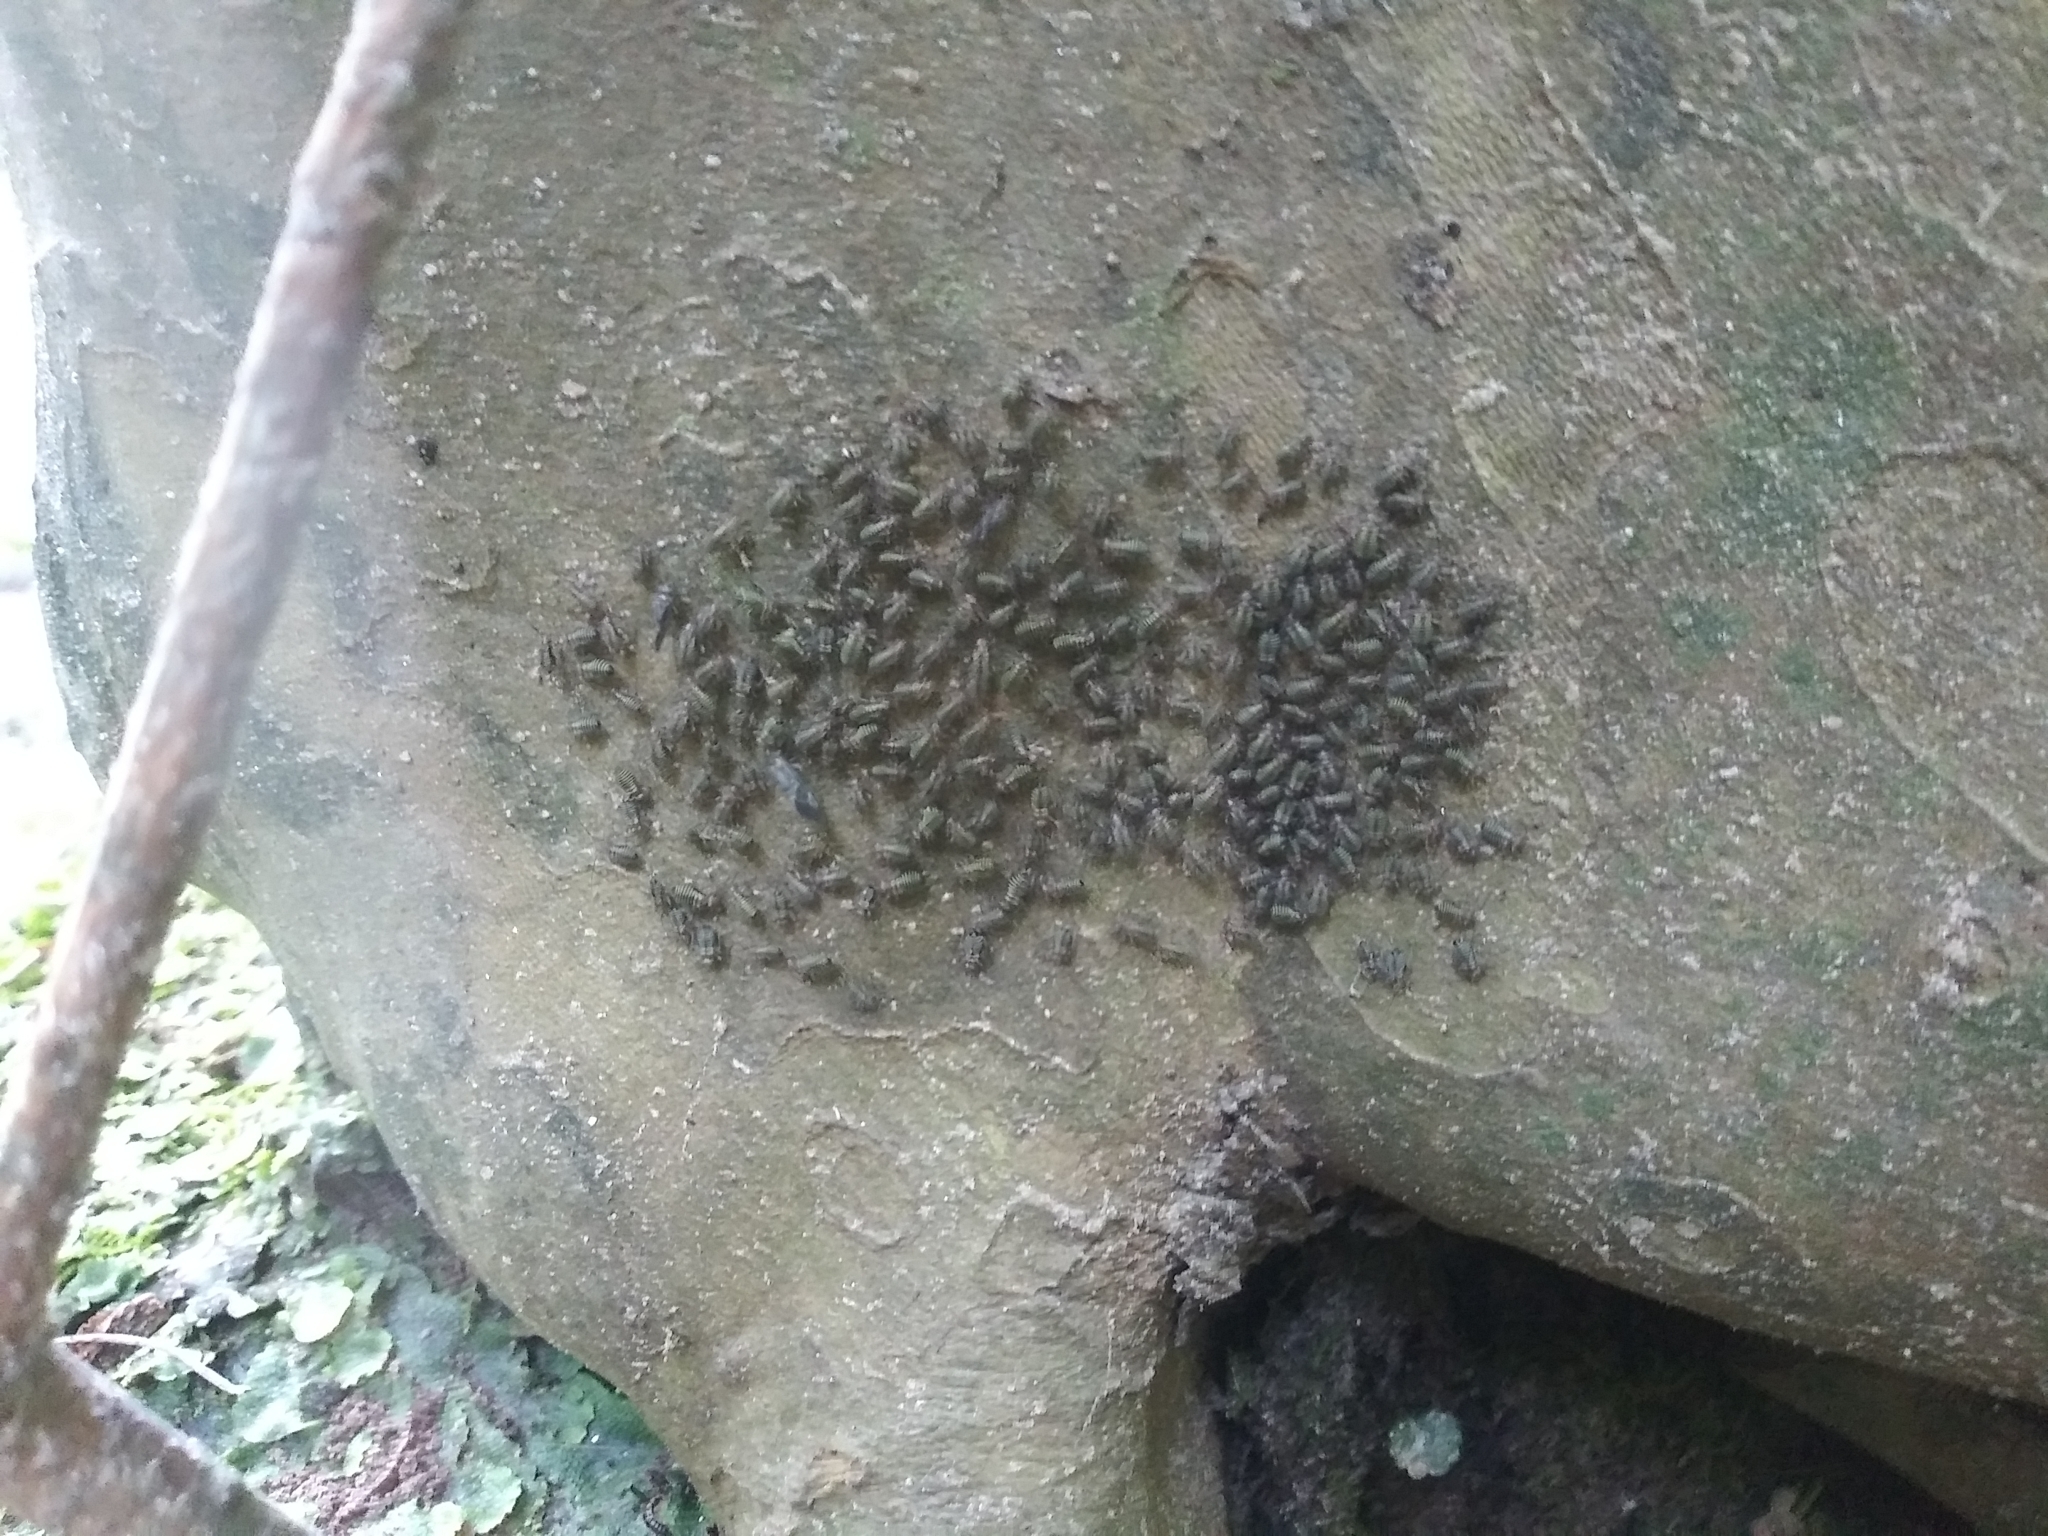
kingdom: Animalia
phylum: Arthropoda
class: Insecta
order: Psocodea
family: Psocidae
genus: Cerastipsocus
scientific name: Cerastipsocus venosus
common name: Tree cattle
